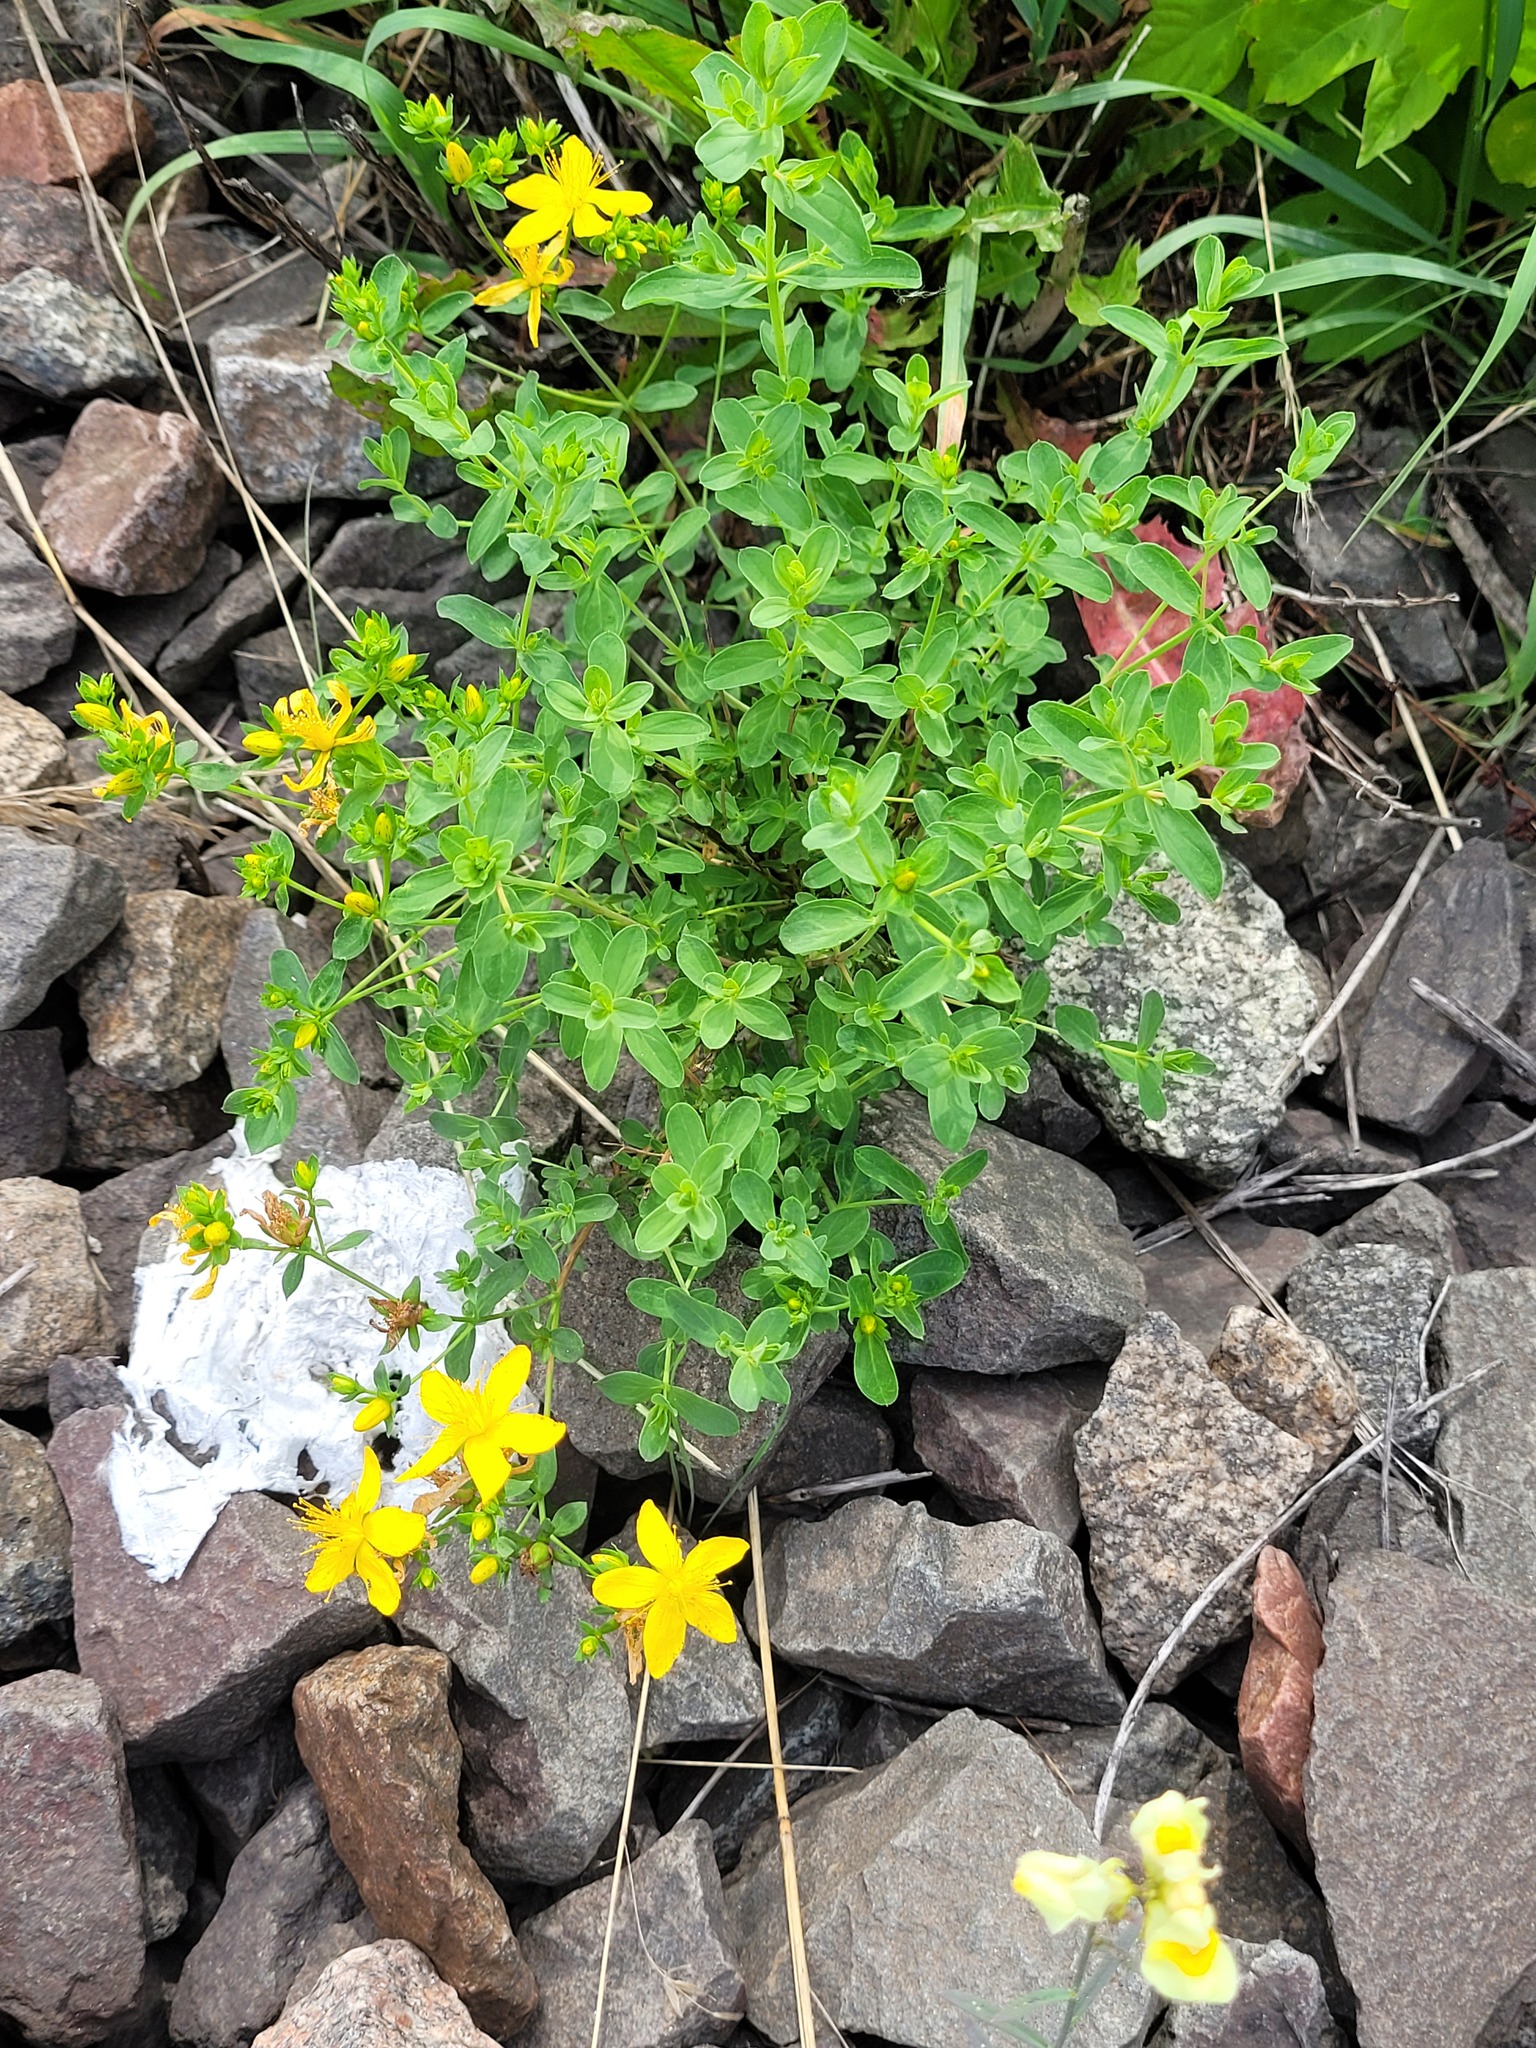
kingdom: Plantae
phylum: Tracheophyta
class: Magnoliopsida
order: Malpighiales
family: Hypericaceae
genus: Hypericum
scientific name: Hypericum perforatum
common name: Common st. johnswort
